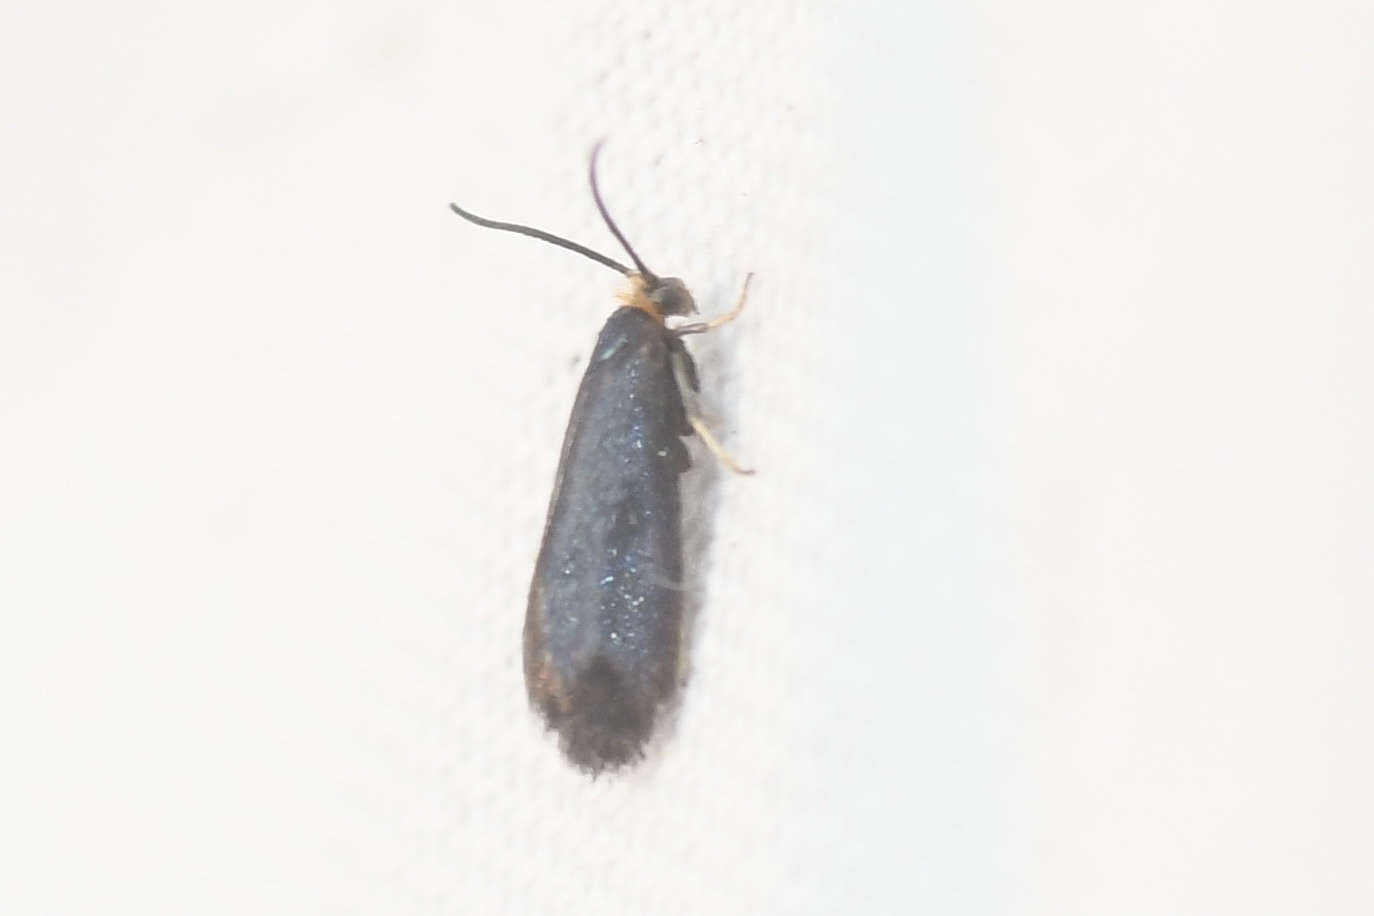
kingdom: Animalia
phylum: Arthropoda
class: Insecta
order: Lepidoptera
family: Incurvariidae
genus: Paraclemensia
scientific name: Paraclemensia acerifoliella
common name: Maple leafcutter
